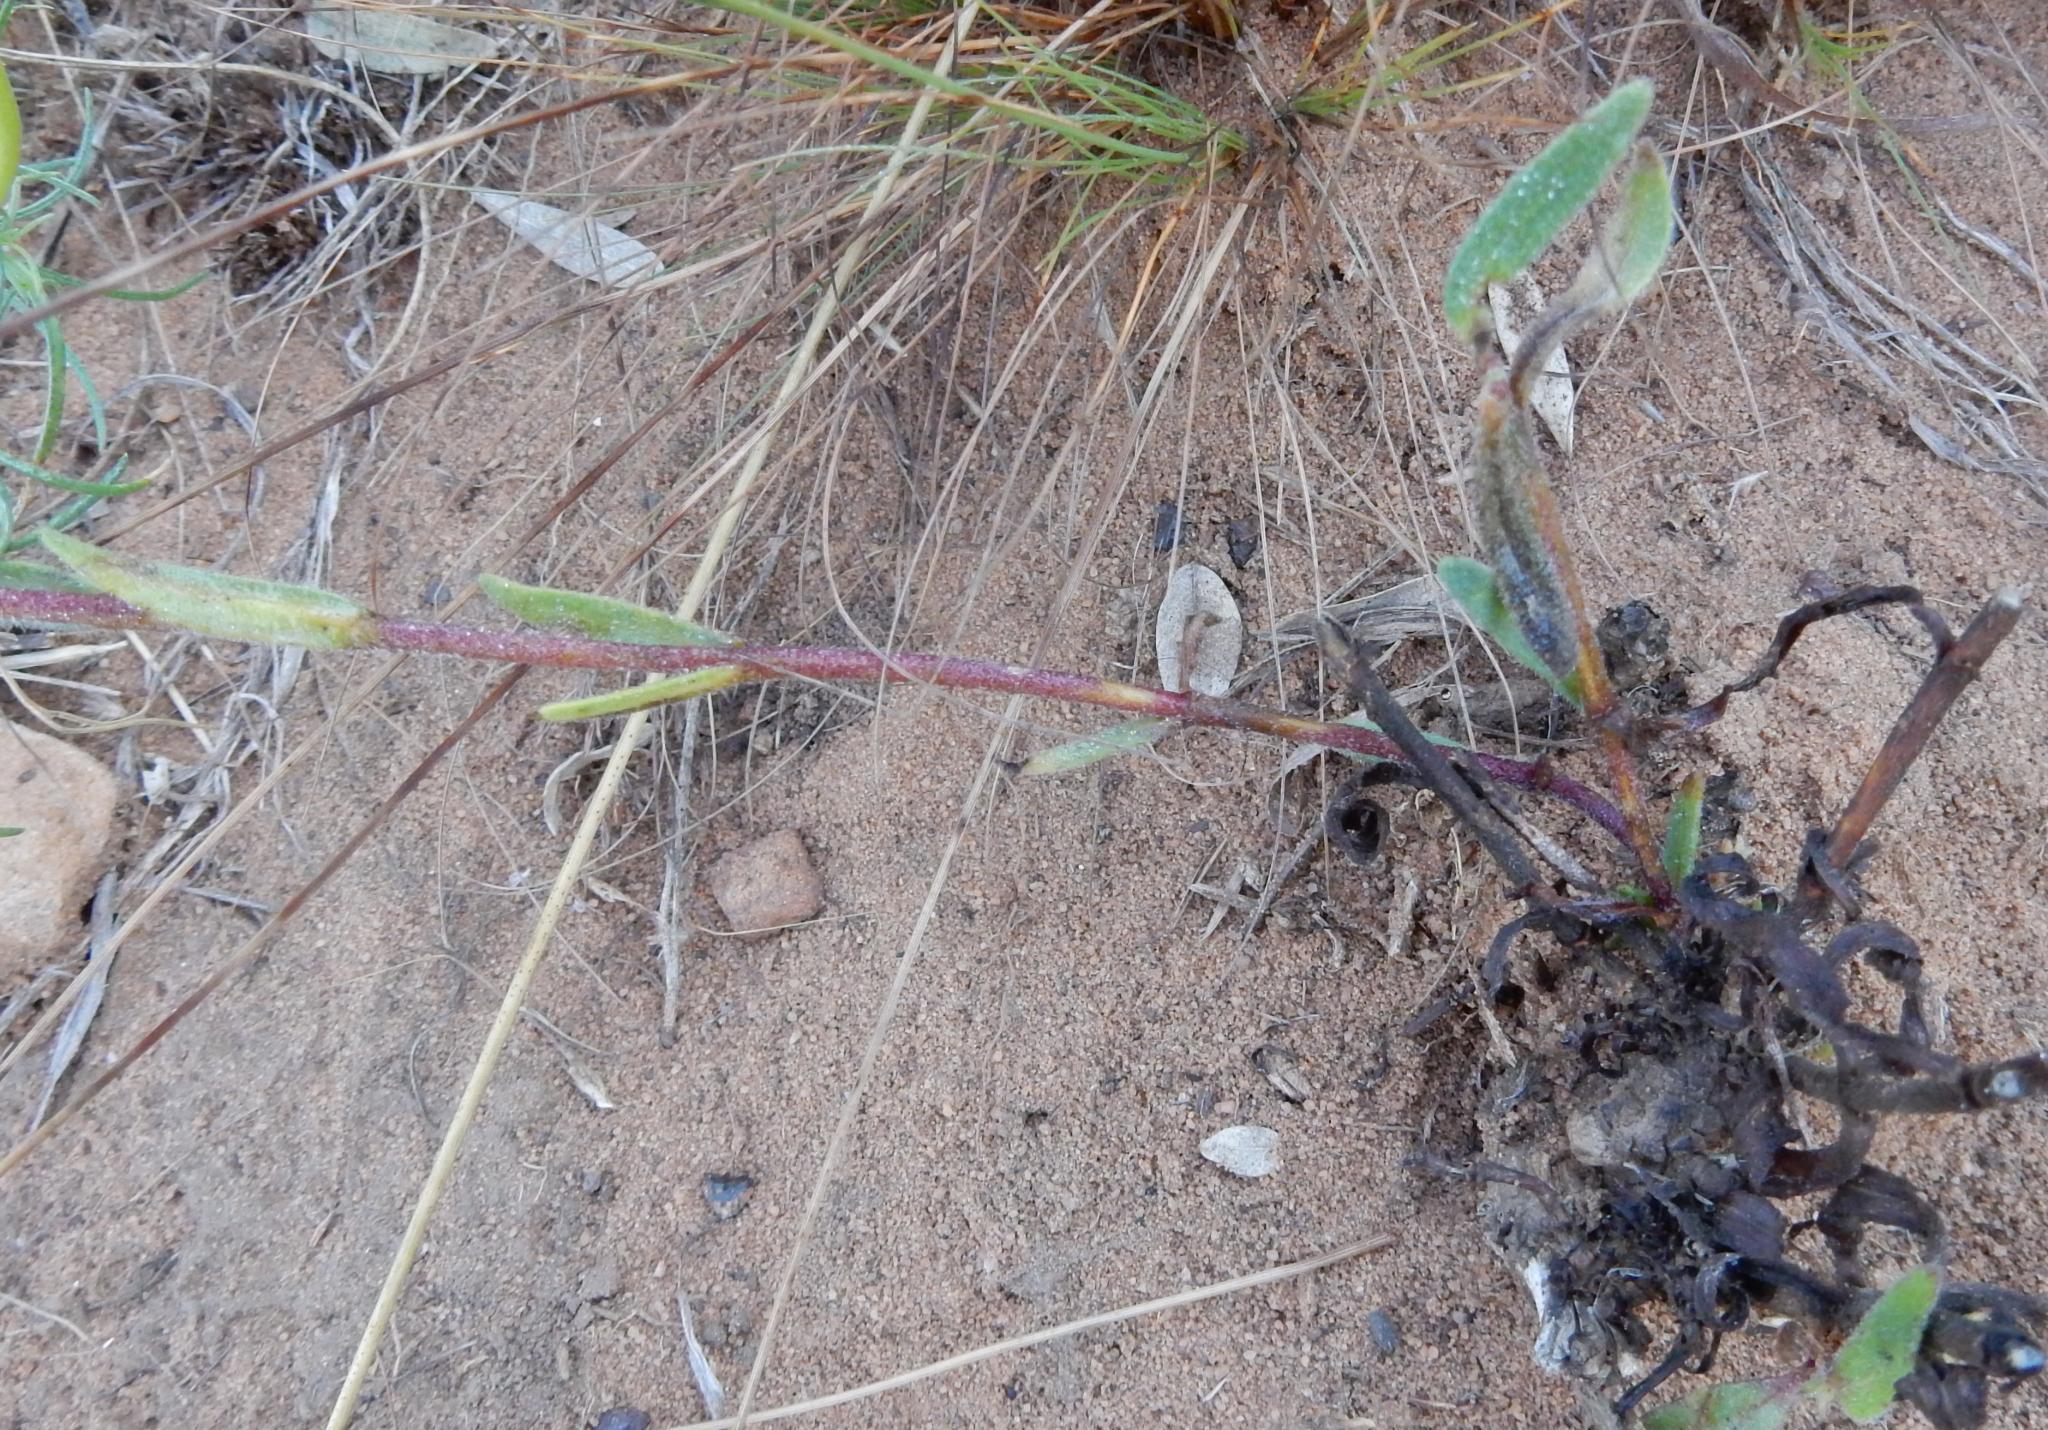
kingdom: Plantae
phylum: Tracheophyta
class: Magnoliopsida
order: Lamiales
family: Scrophulariaceae
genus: Zaluzianskya
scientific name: Zaluzianskya elongata
